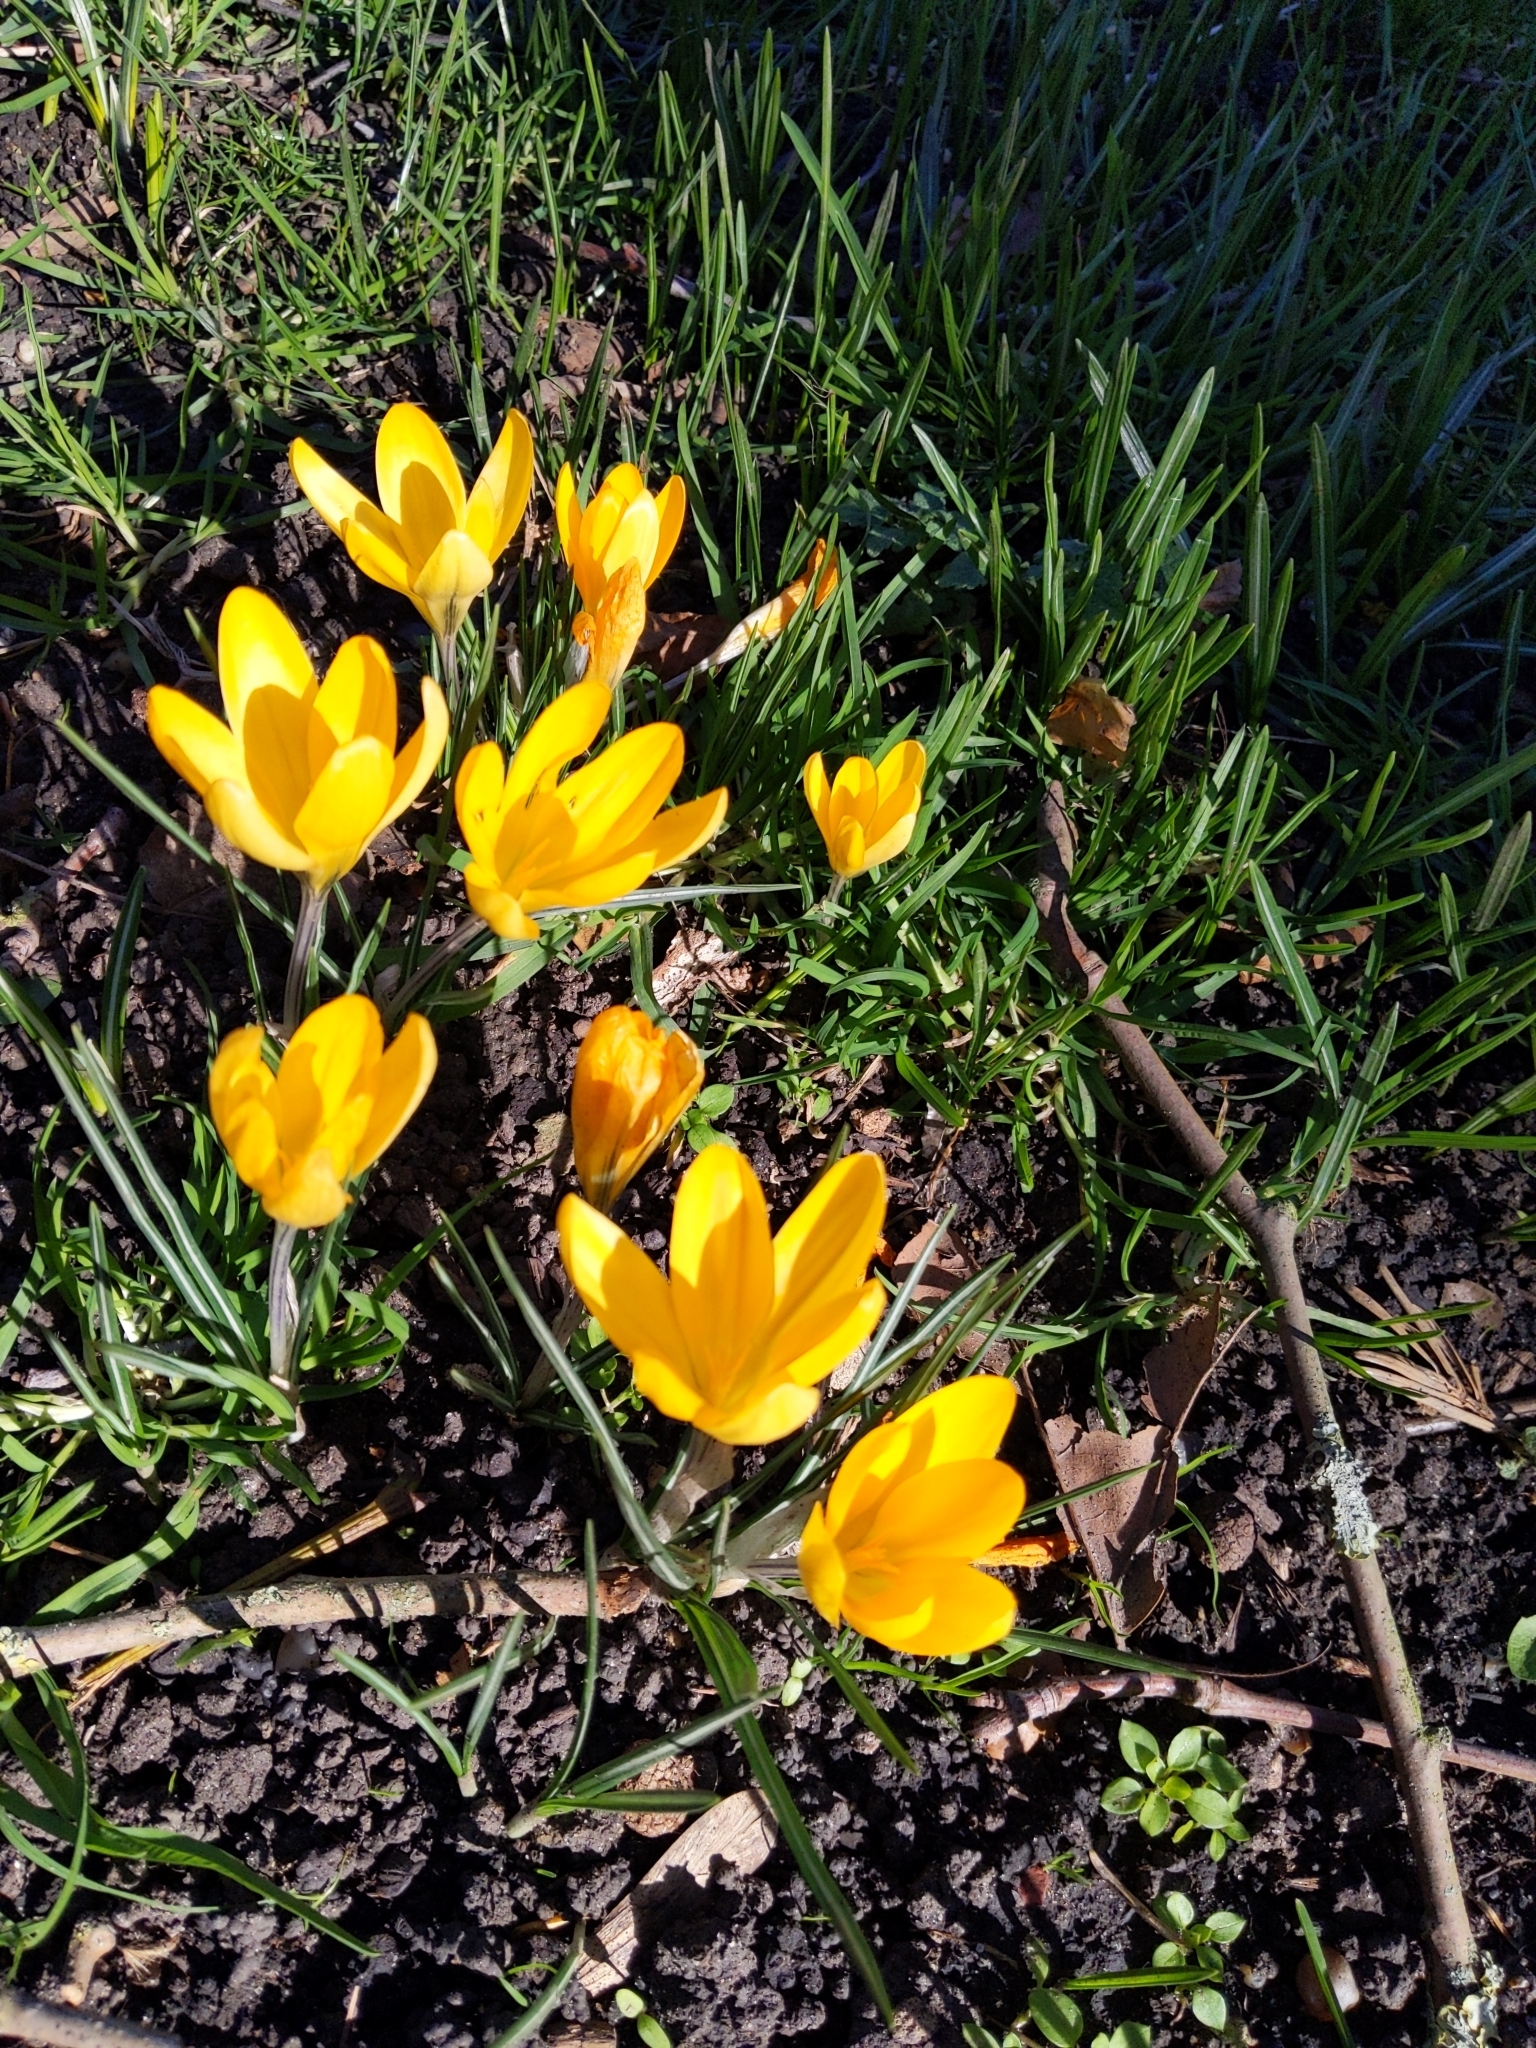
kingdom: Plantae
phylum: Tracheophyta
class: Liliopsida
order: Asparagales
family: Iridaceae
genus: Crocus
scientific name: Crocus luteus
